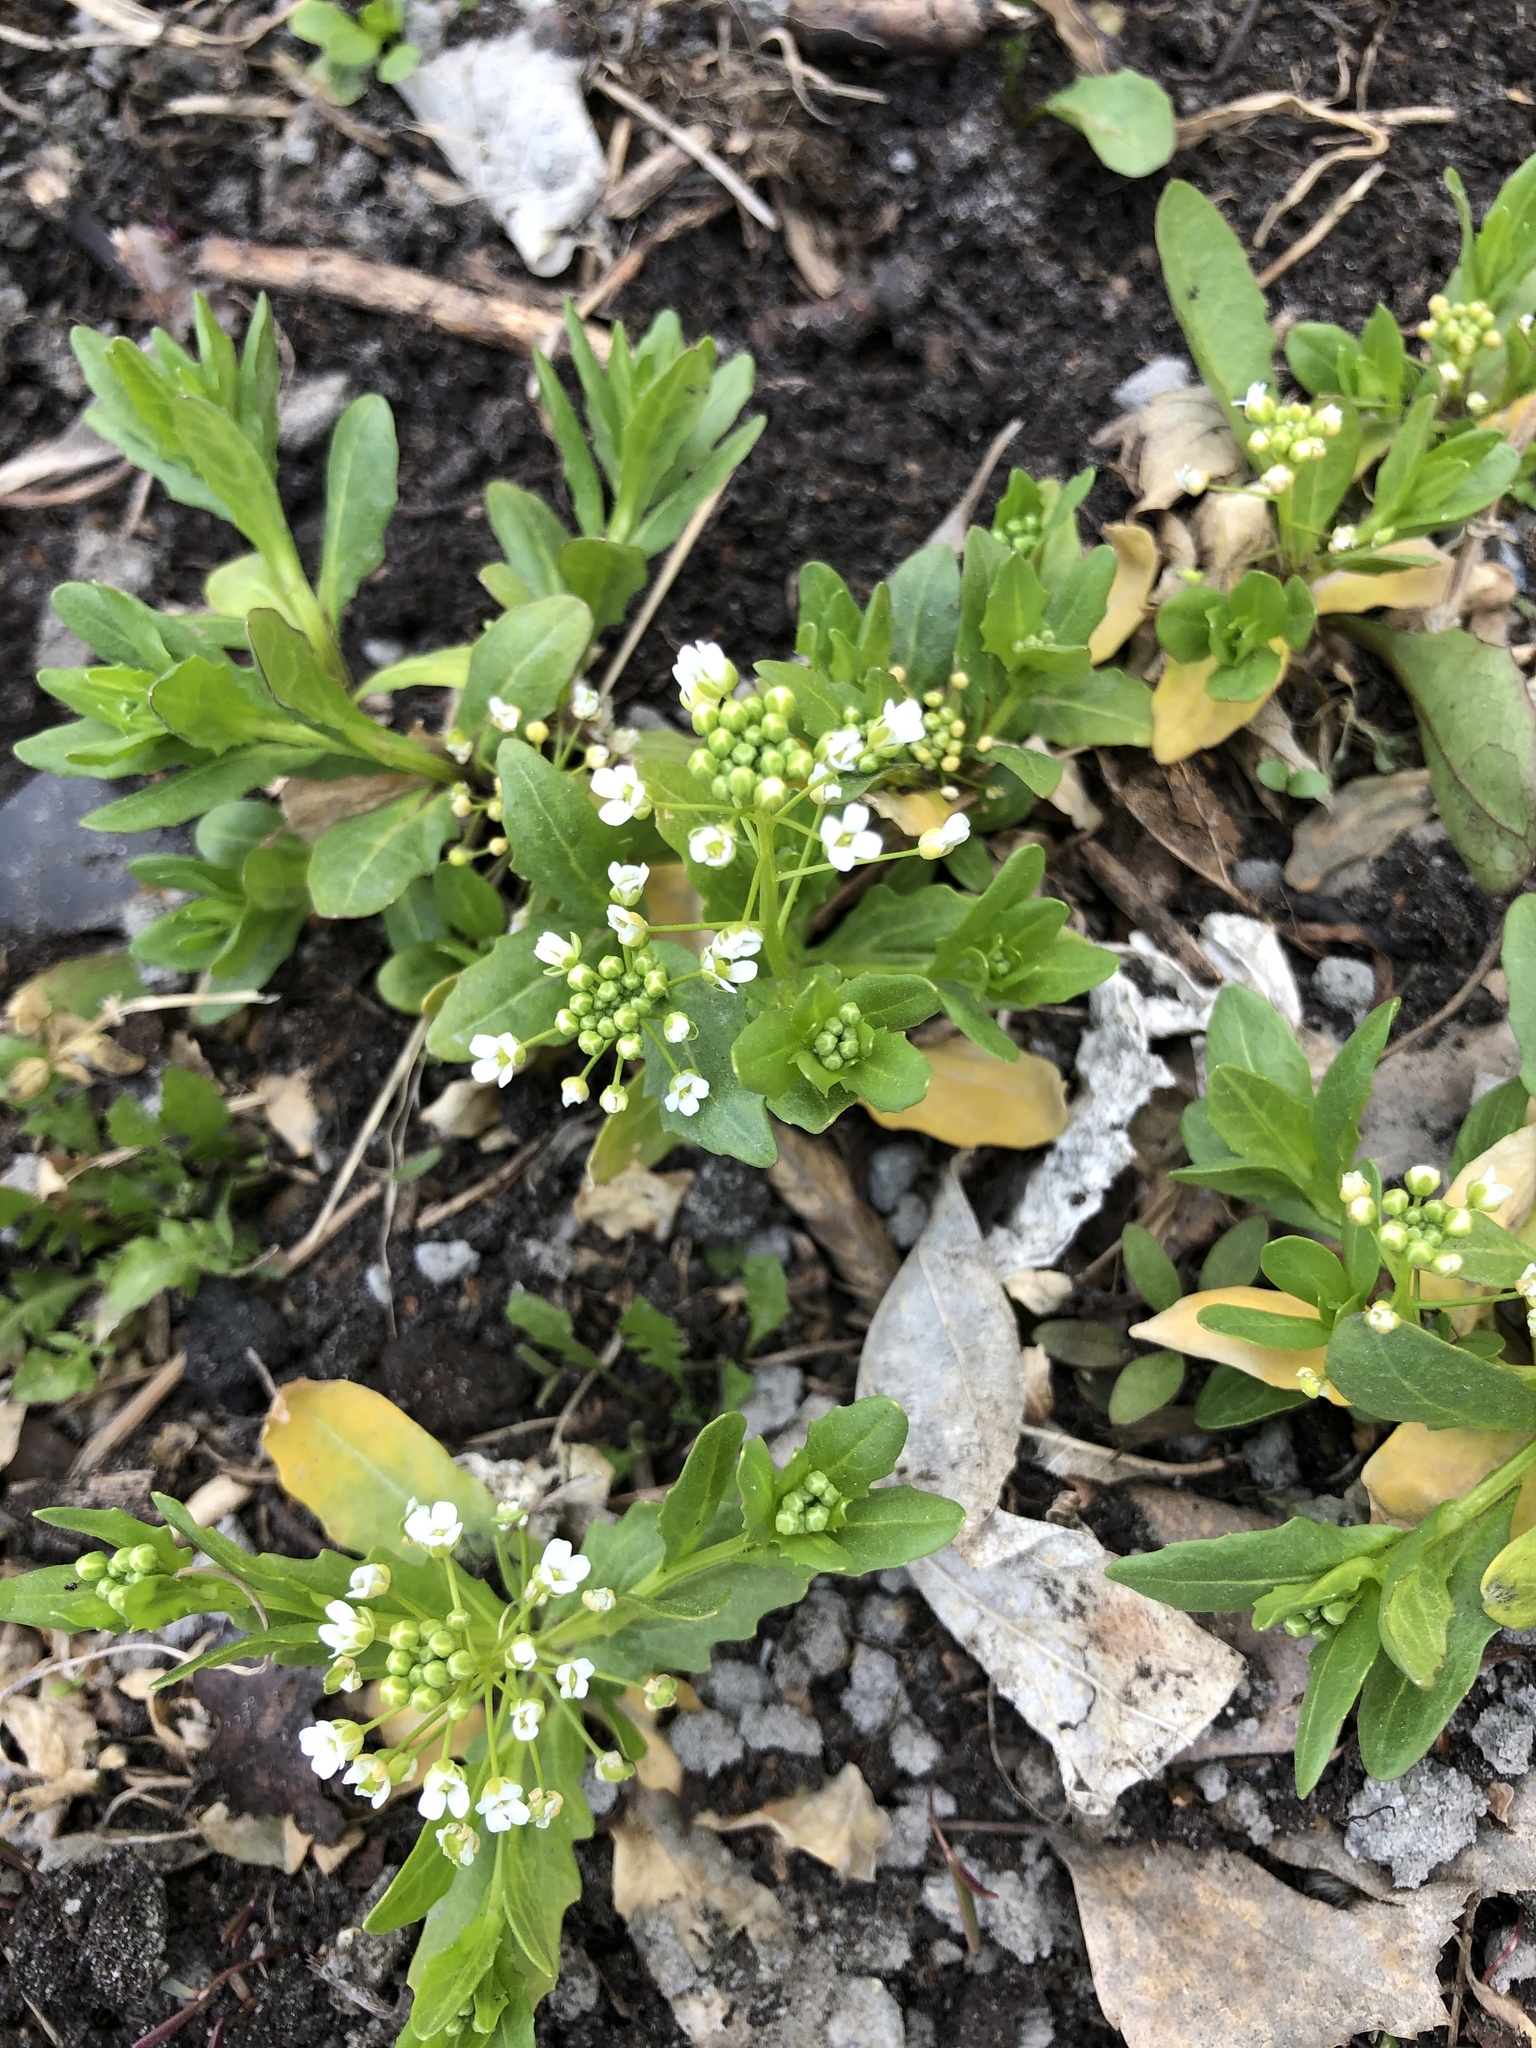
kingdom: Plantae
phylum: Tracheophyta
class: Magnoliopsida
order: Brassicales
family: Brassicaceae
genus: Thlaspi
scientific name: Thlaspi arvense
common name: Field pennycress
